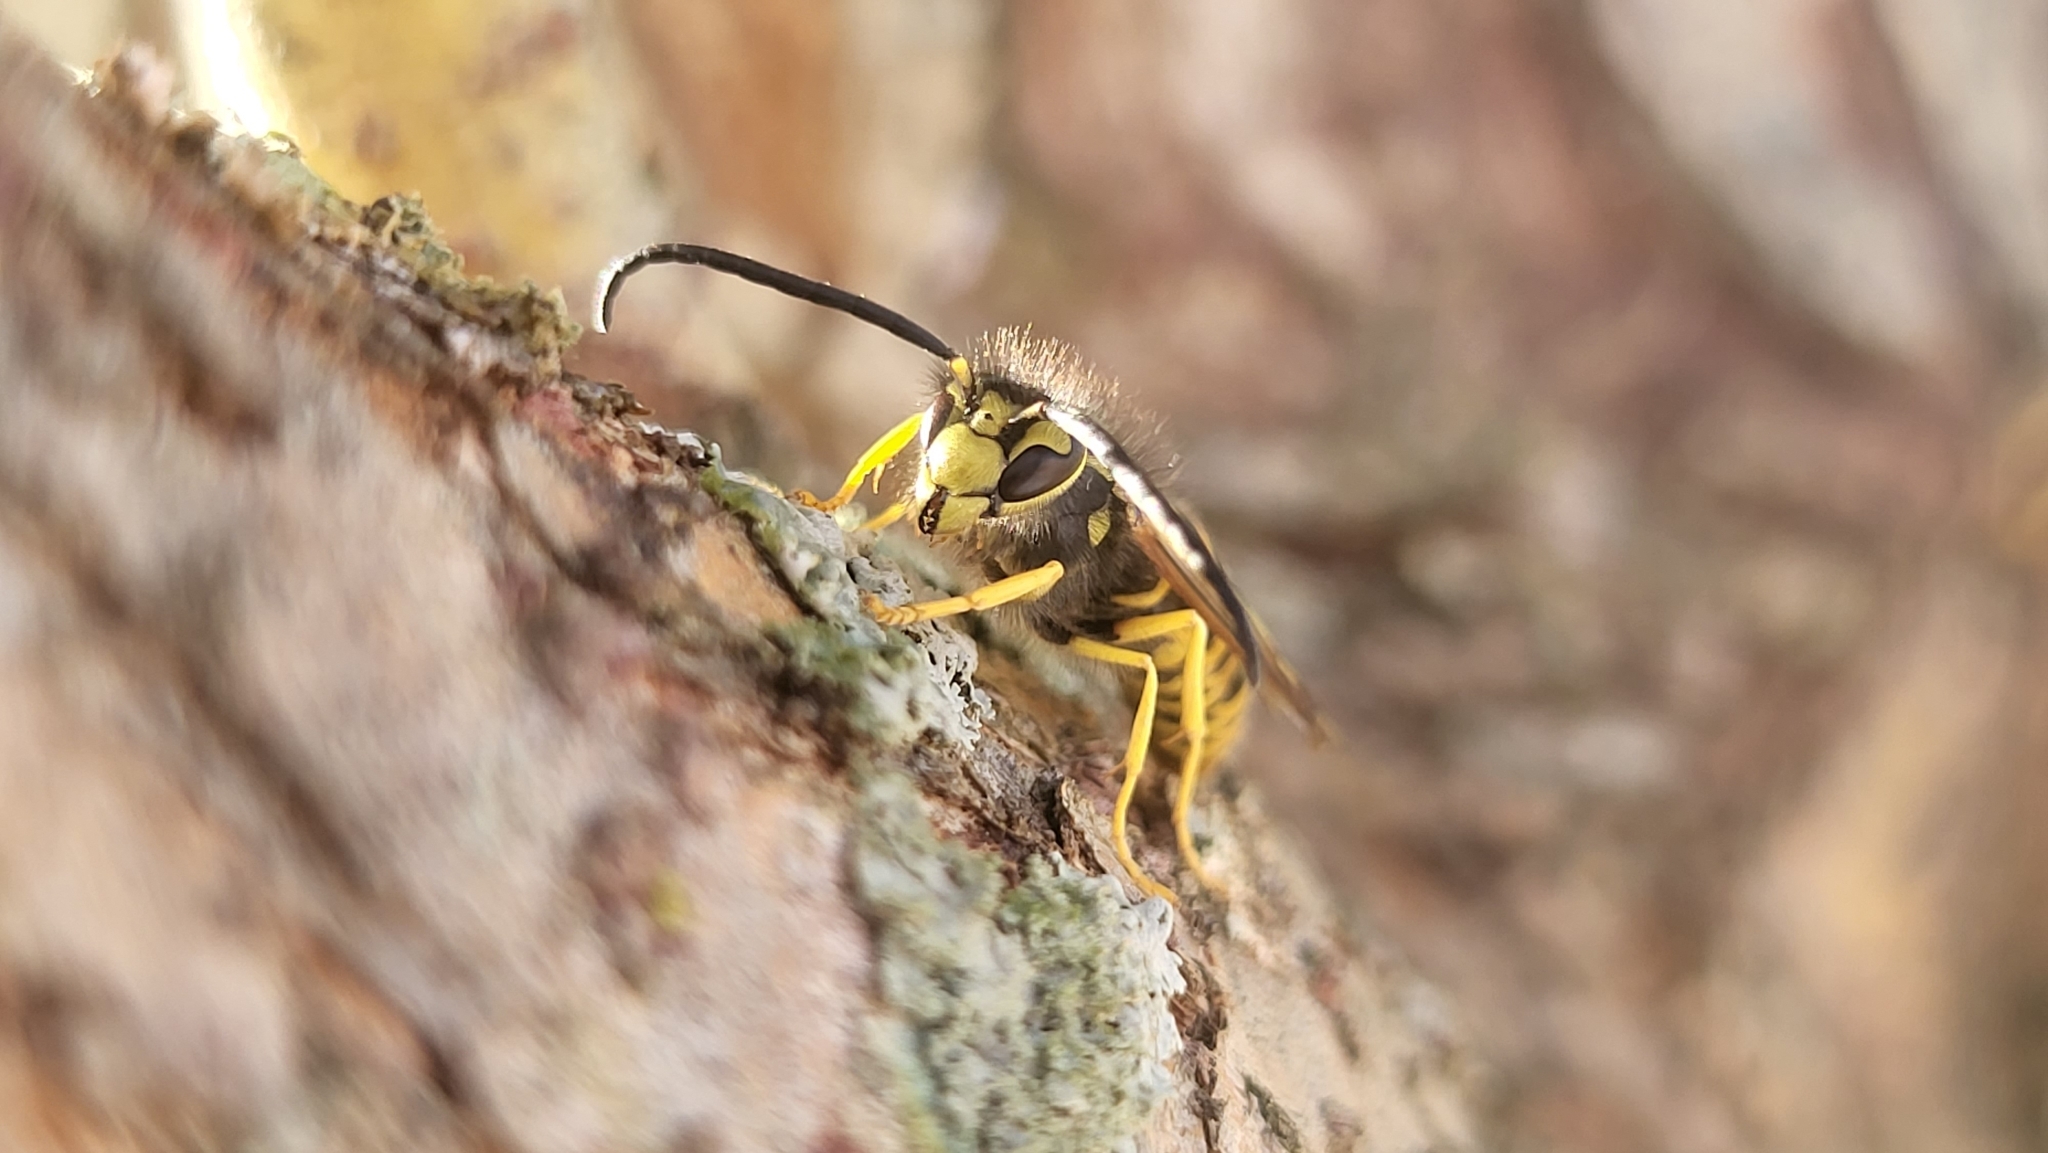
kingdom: Animalia
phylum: Arthropoda
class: Insecta
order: Hymenoptera
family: Vespidae
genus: Vespula
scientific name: Vespula maculifrons
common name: Eastern yellowjacket
